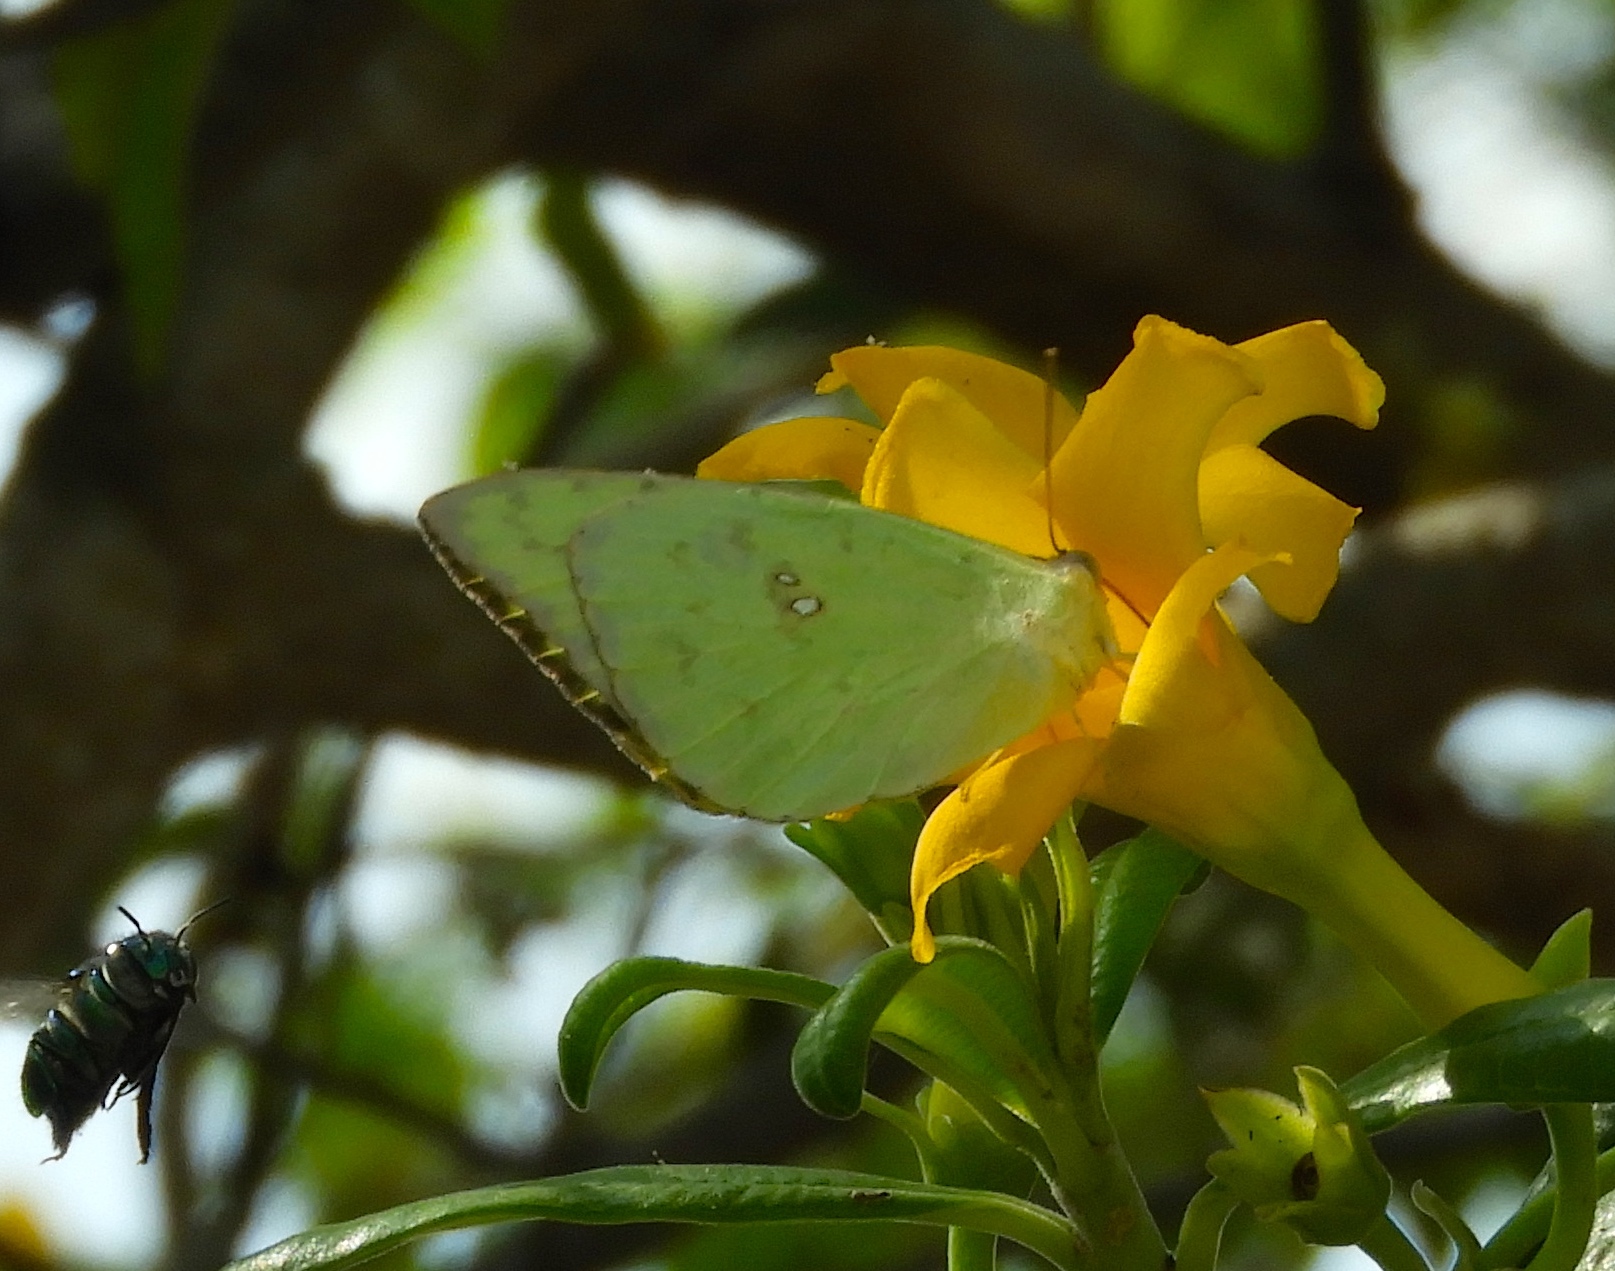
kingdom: Animalia
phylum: Arthropoda
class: Insecta
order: Lepidoptera
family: Pieridae
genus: Phoebis
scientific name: Phoebis sennae
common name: Cloudless sulphur
